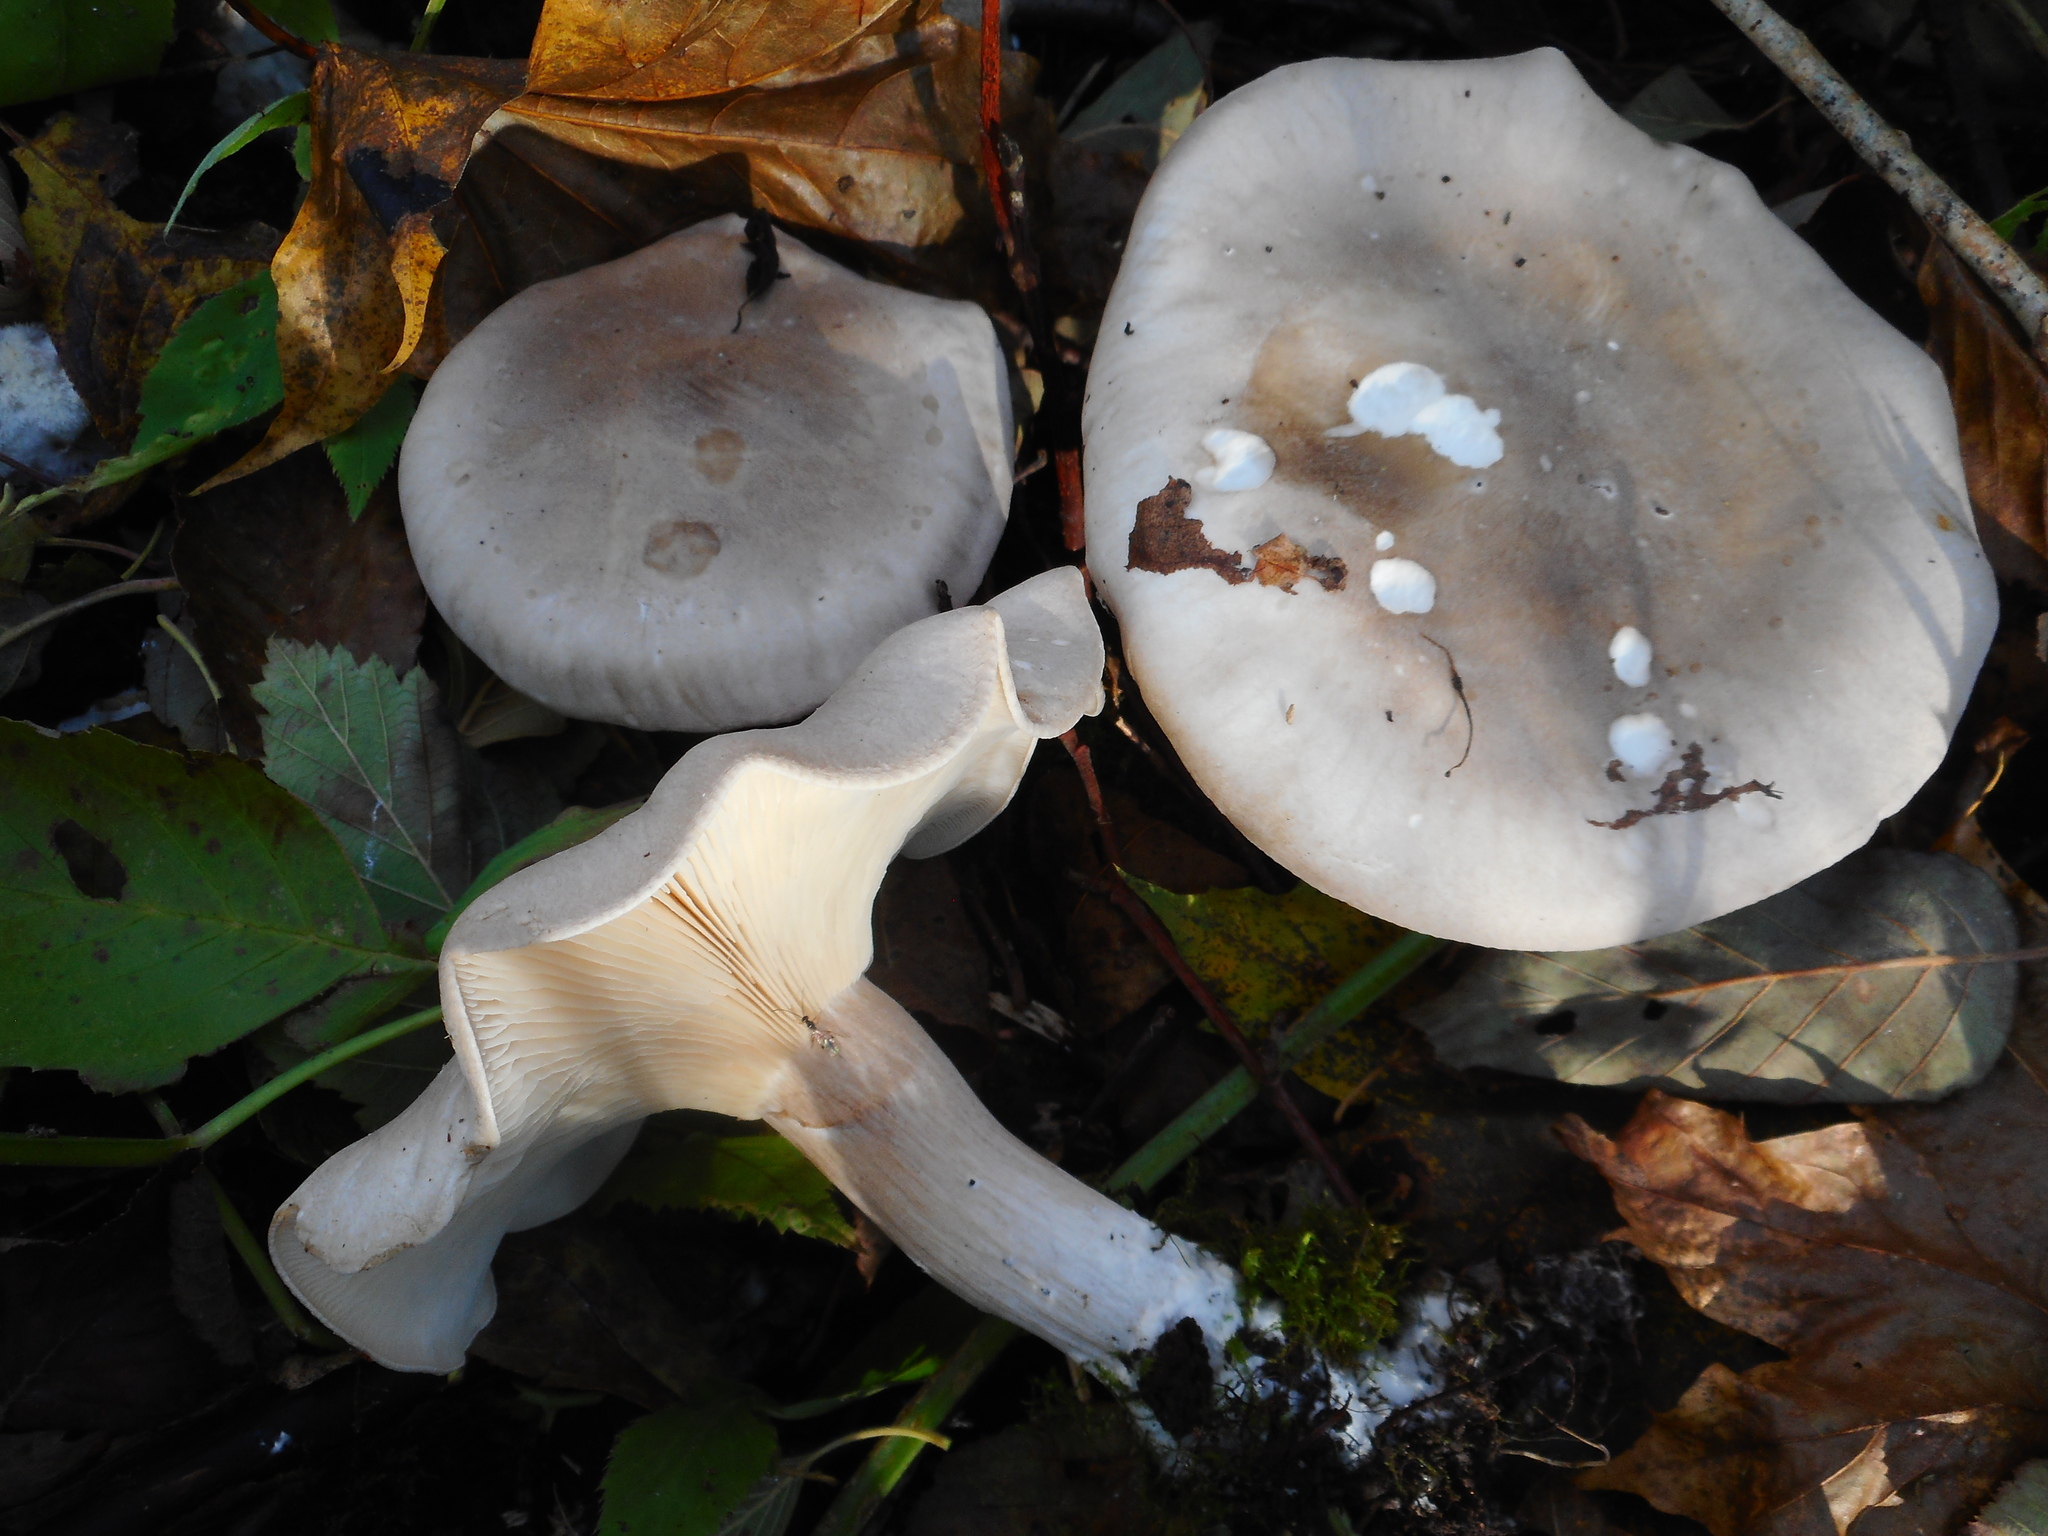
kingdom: Fungi
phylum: Basidiomycota
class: Agaricomycetes
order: Agaricales
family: Tricholomataceae
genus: Clitocybe
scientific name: Clitocybe nebularis
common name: Clouded agaric
